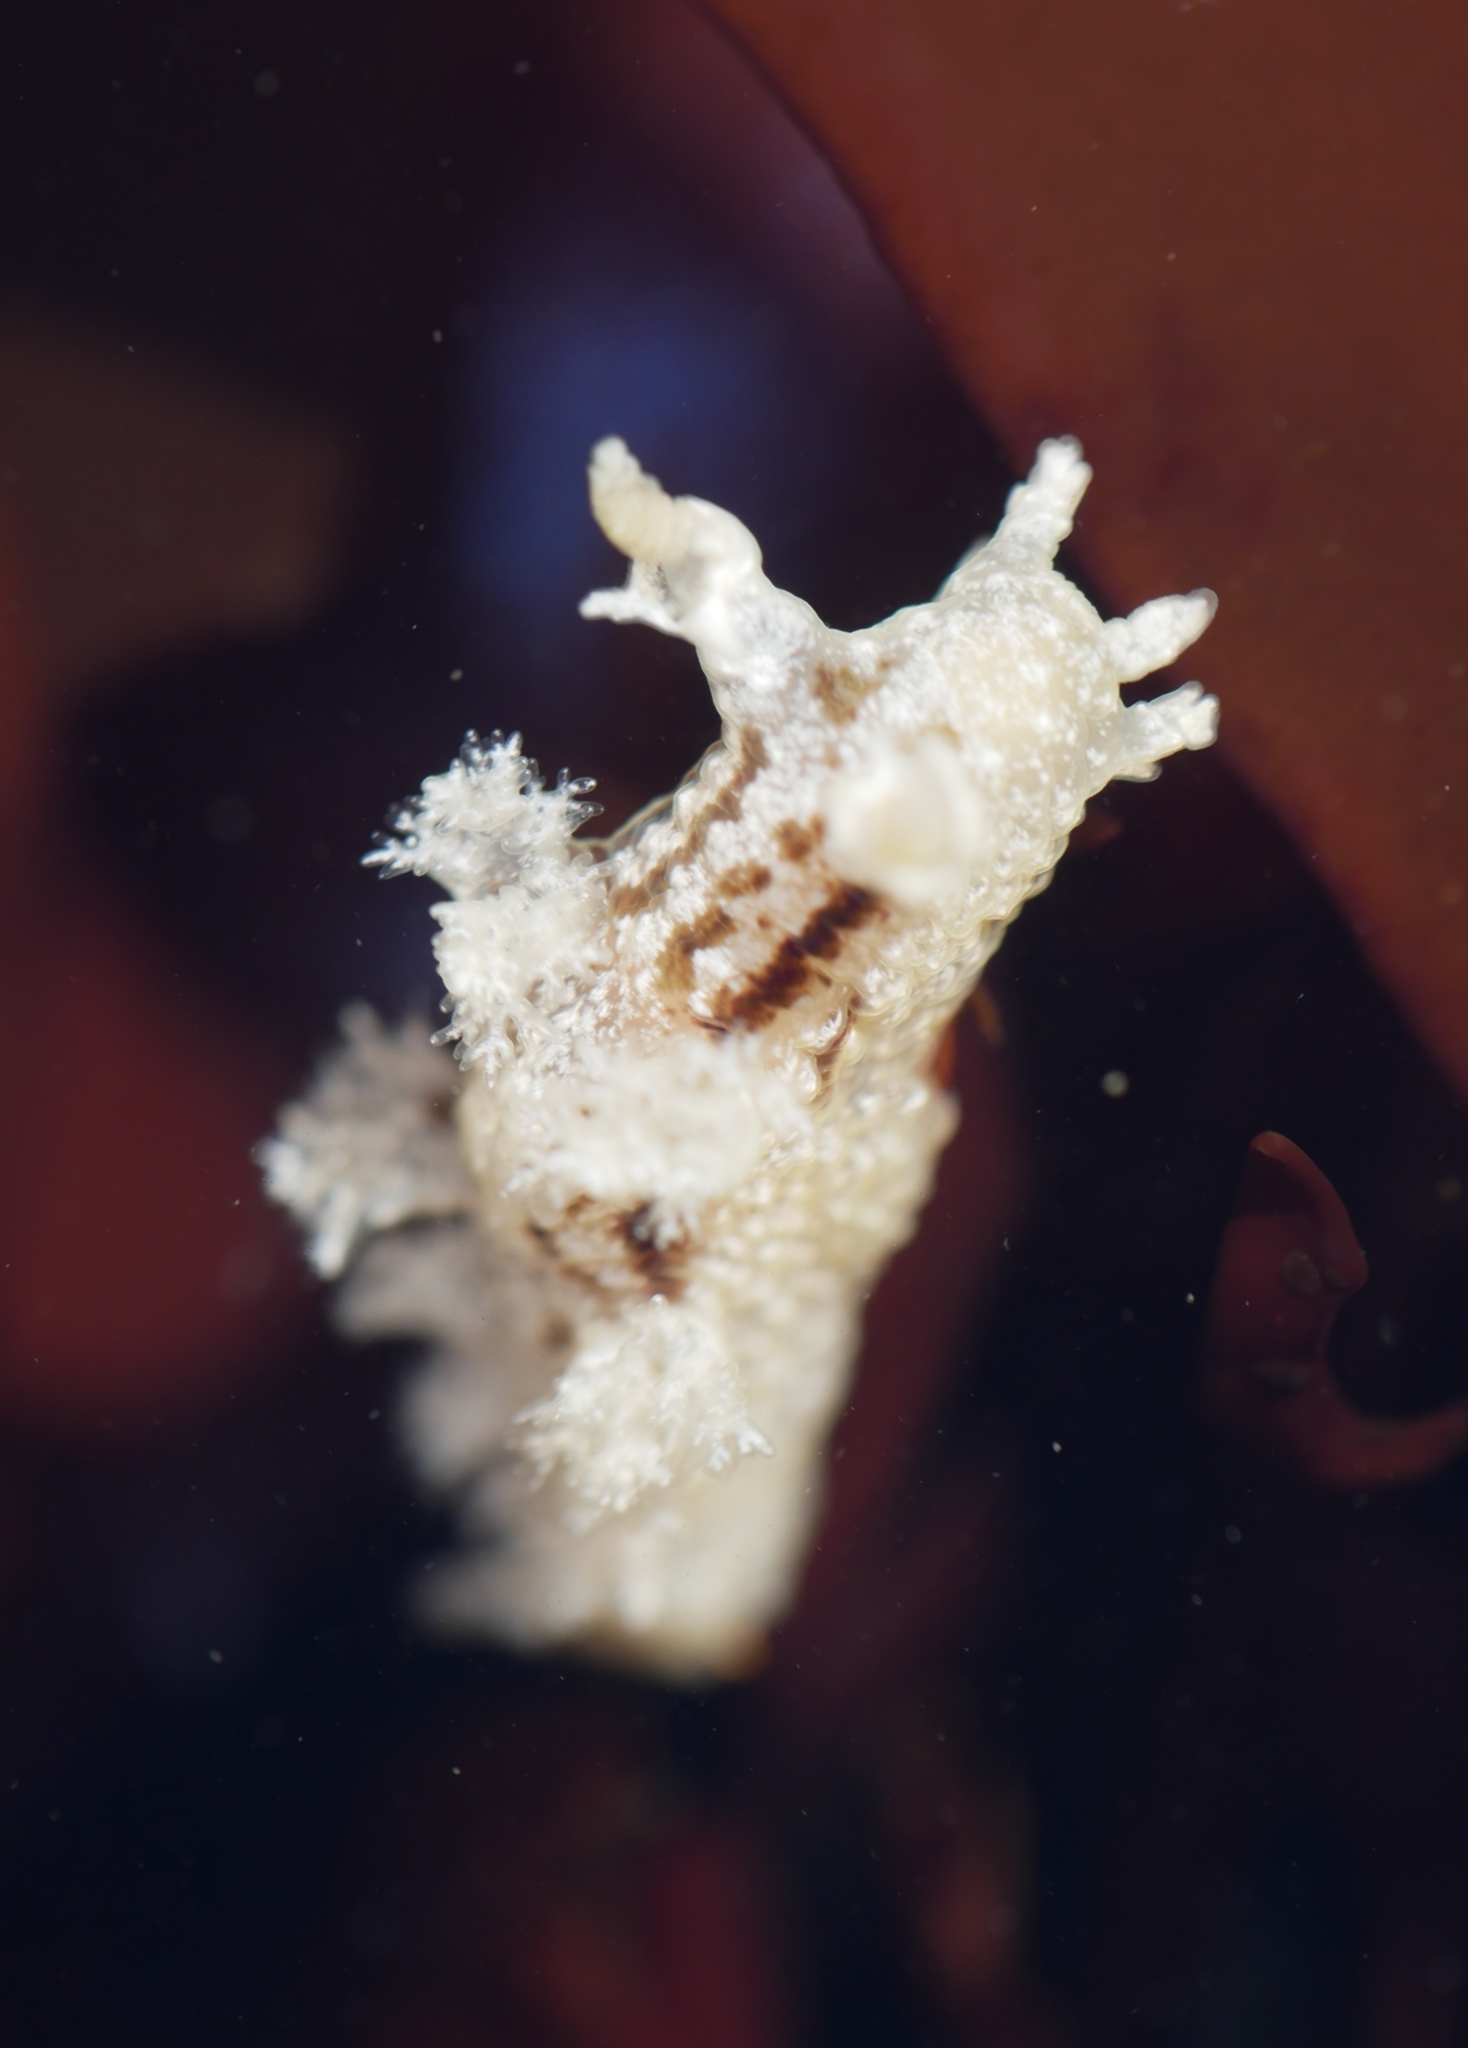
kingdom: Animalia
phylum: Mollusca
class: Gastropoda
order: Nudibranchia
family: Dendronotidae
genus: Dendronotus
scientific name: Dendronotus subramosus
